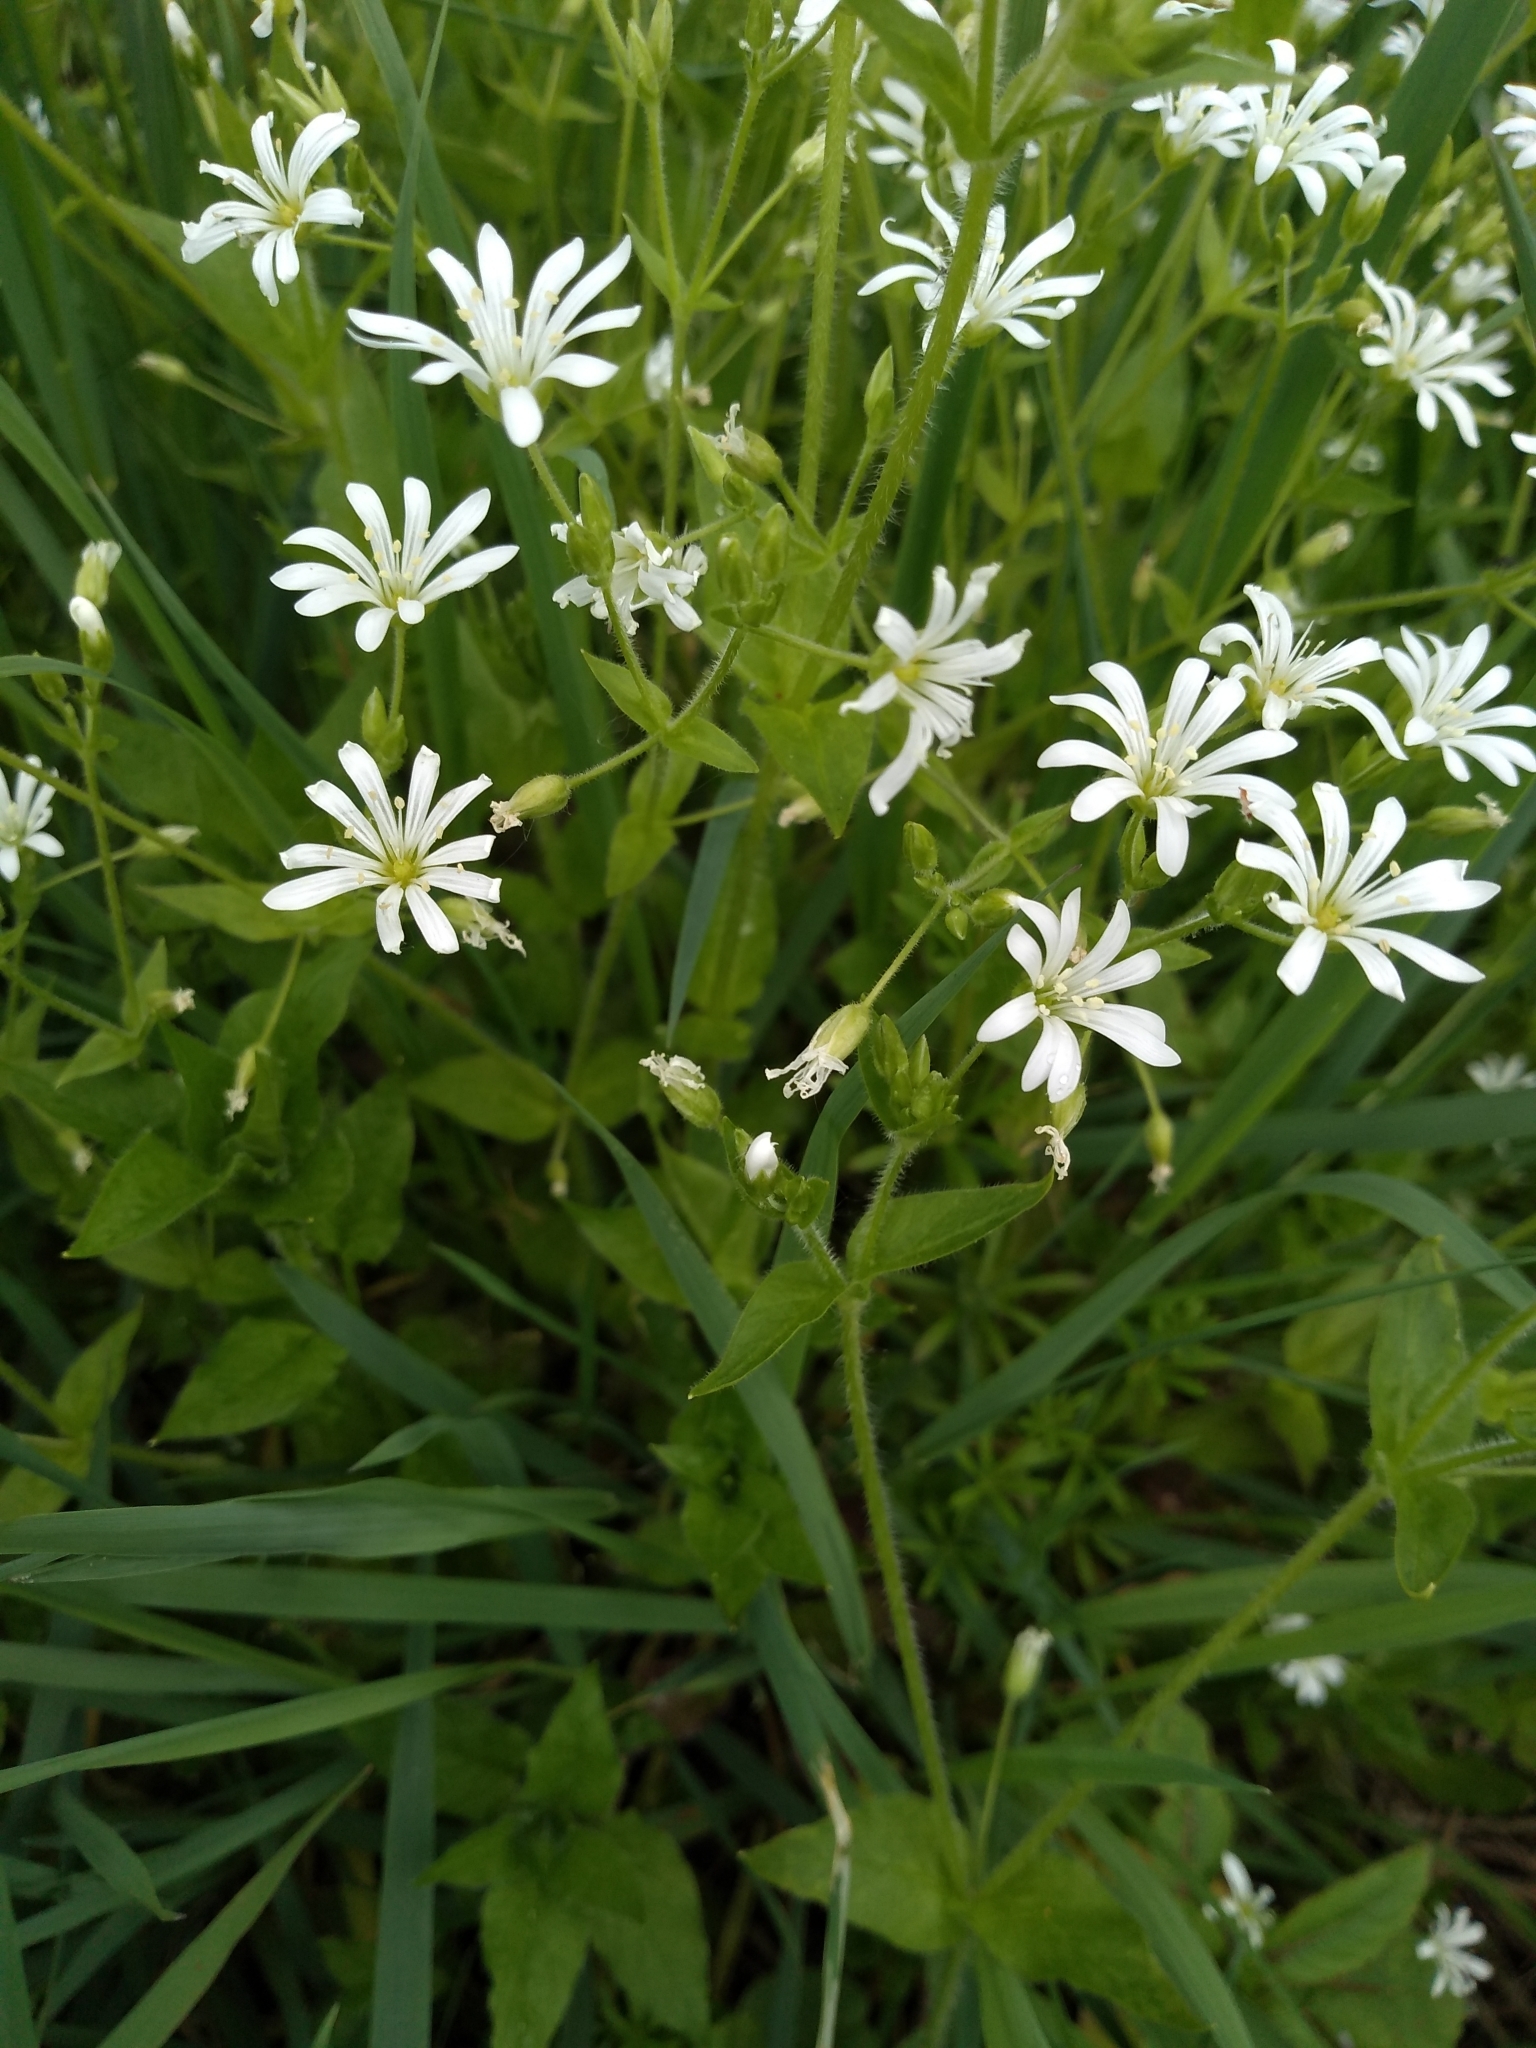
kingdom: Plantae
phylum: Tracheophyta
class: Magnoliopsida
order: Caryophyllales
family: Caryophyllaceae
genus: Stellaria
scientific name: Stellaria nemorum
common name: Wood stitchwort
